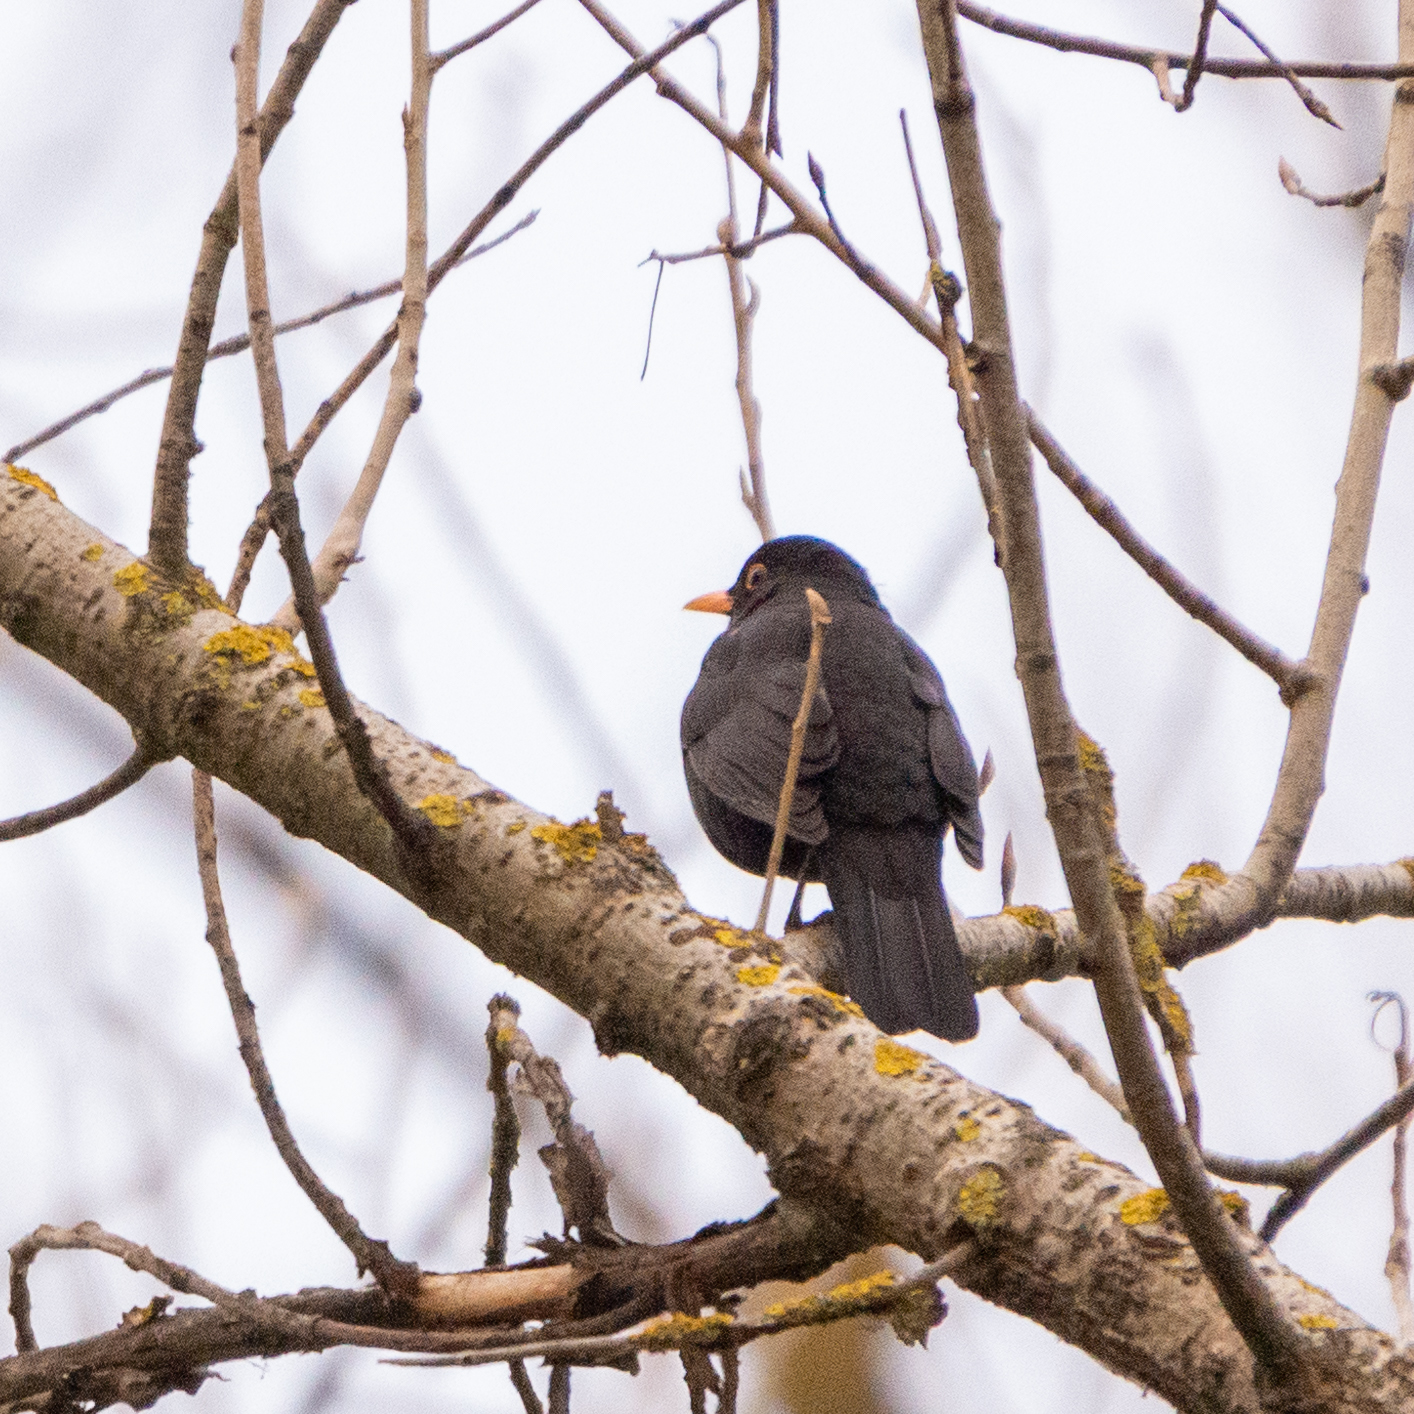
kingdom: Animalia
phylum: Chordata
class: Aves
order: Passeriformes
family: Turdidae
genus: Turdus
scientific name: Turdus merula
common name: Common blackbird
